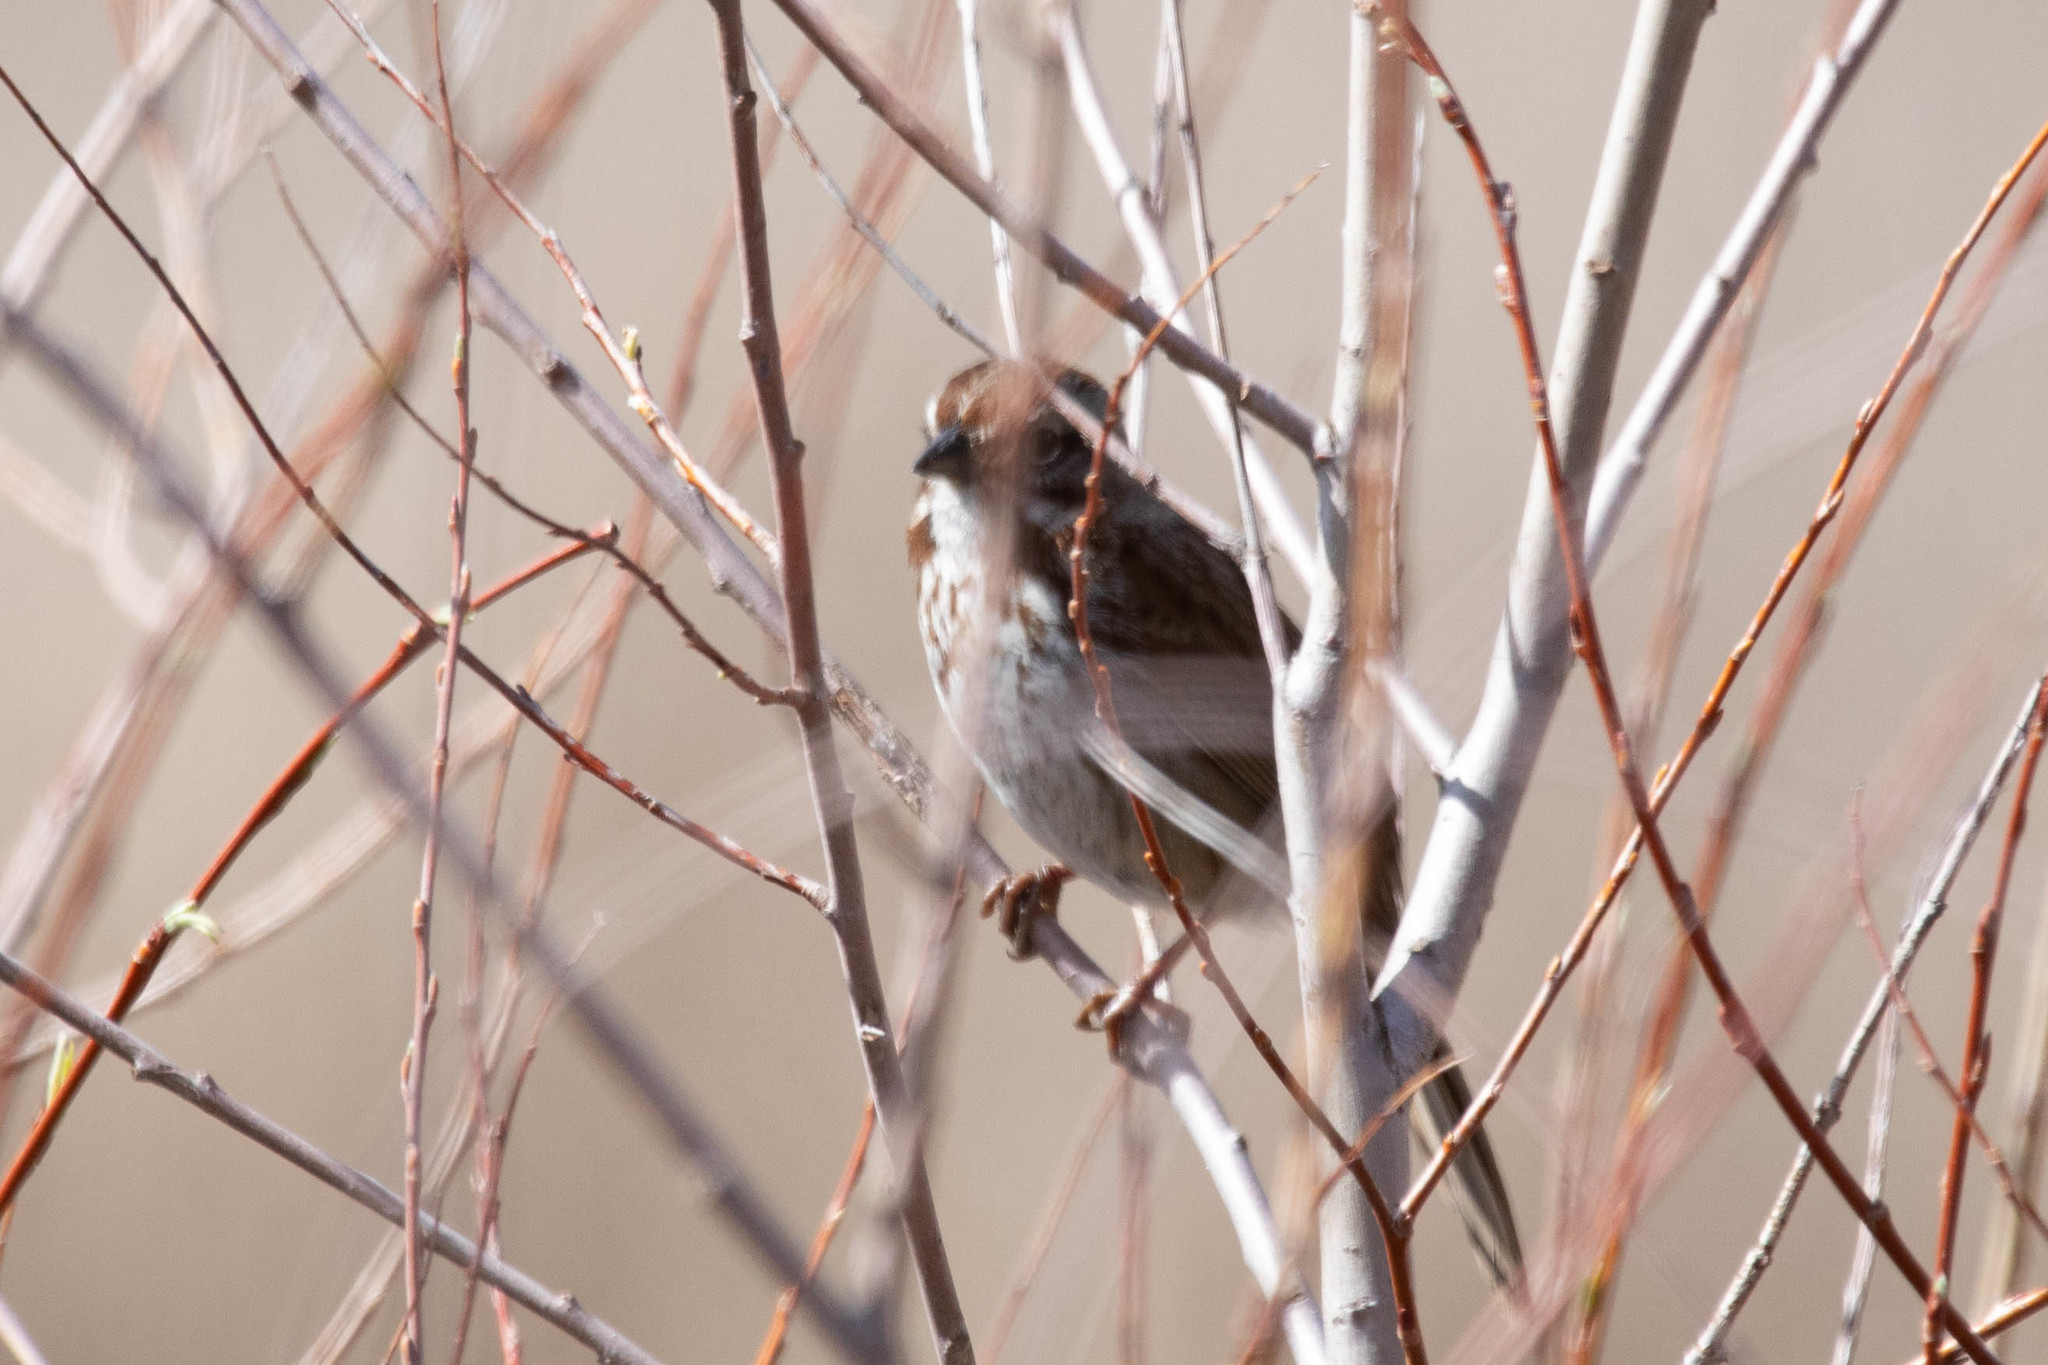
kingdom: Animalia
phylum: Chordata
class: Aves
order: Passeriformes
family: Passerellidae
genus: Melospiza
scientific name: Melospiza melodia
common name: Song sparrow
